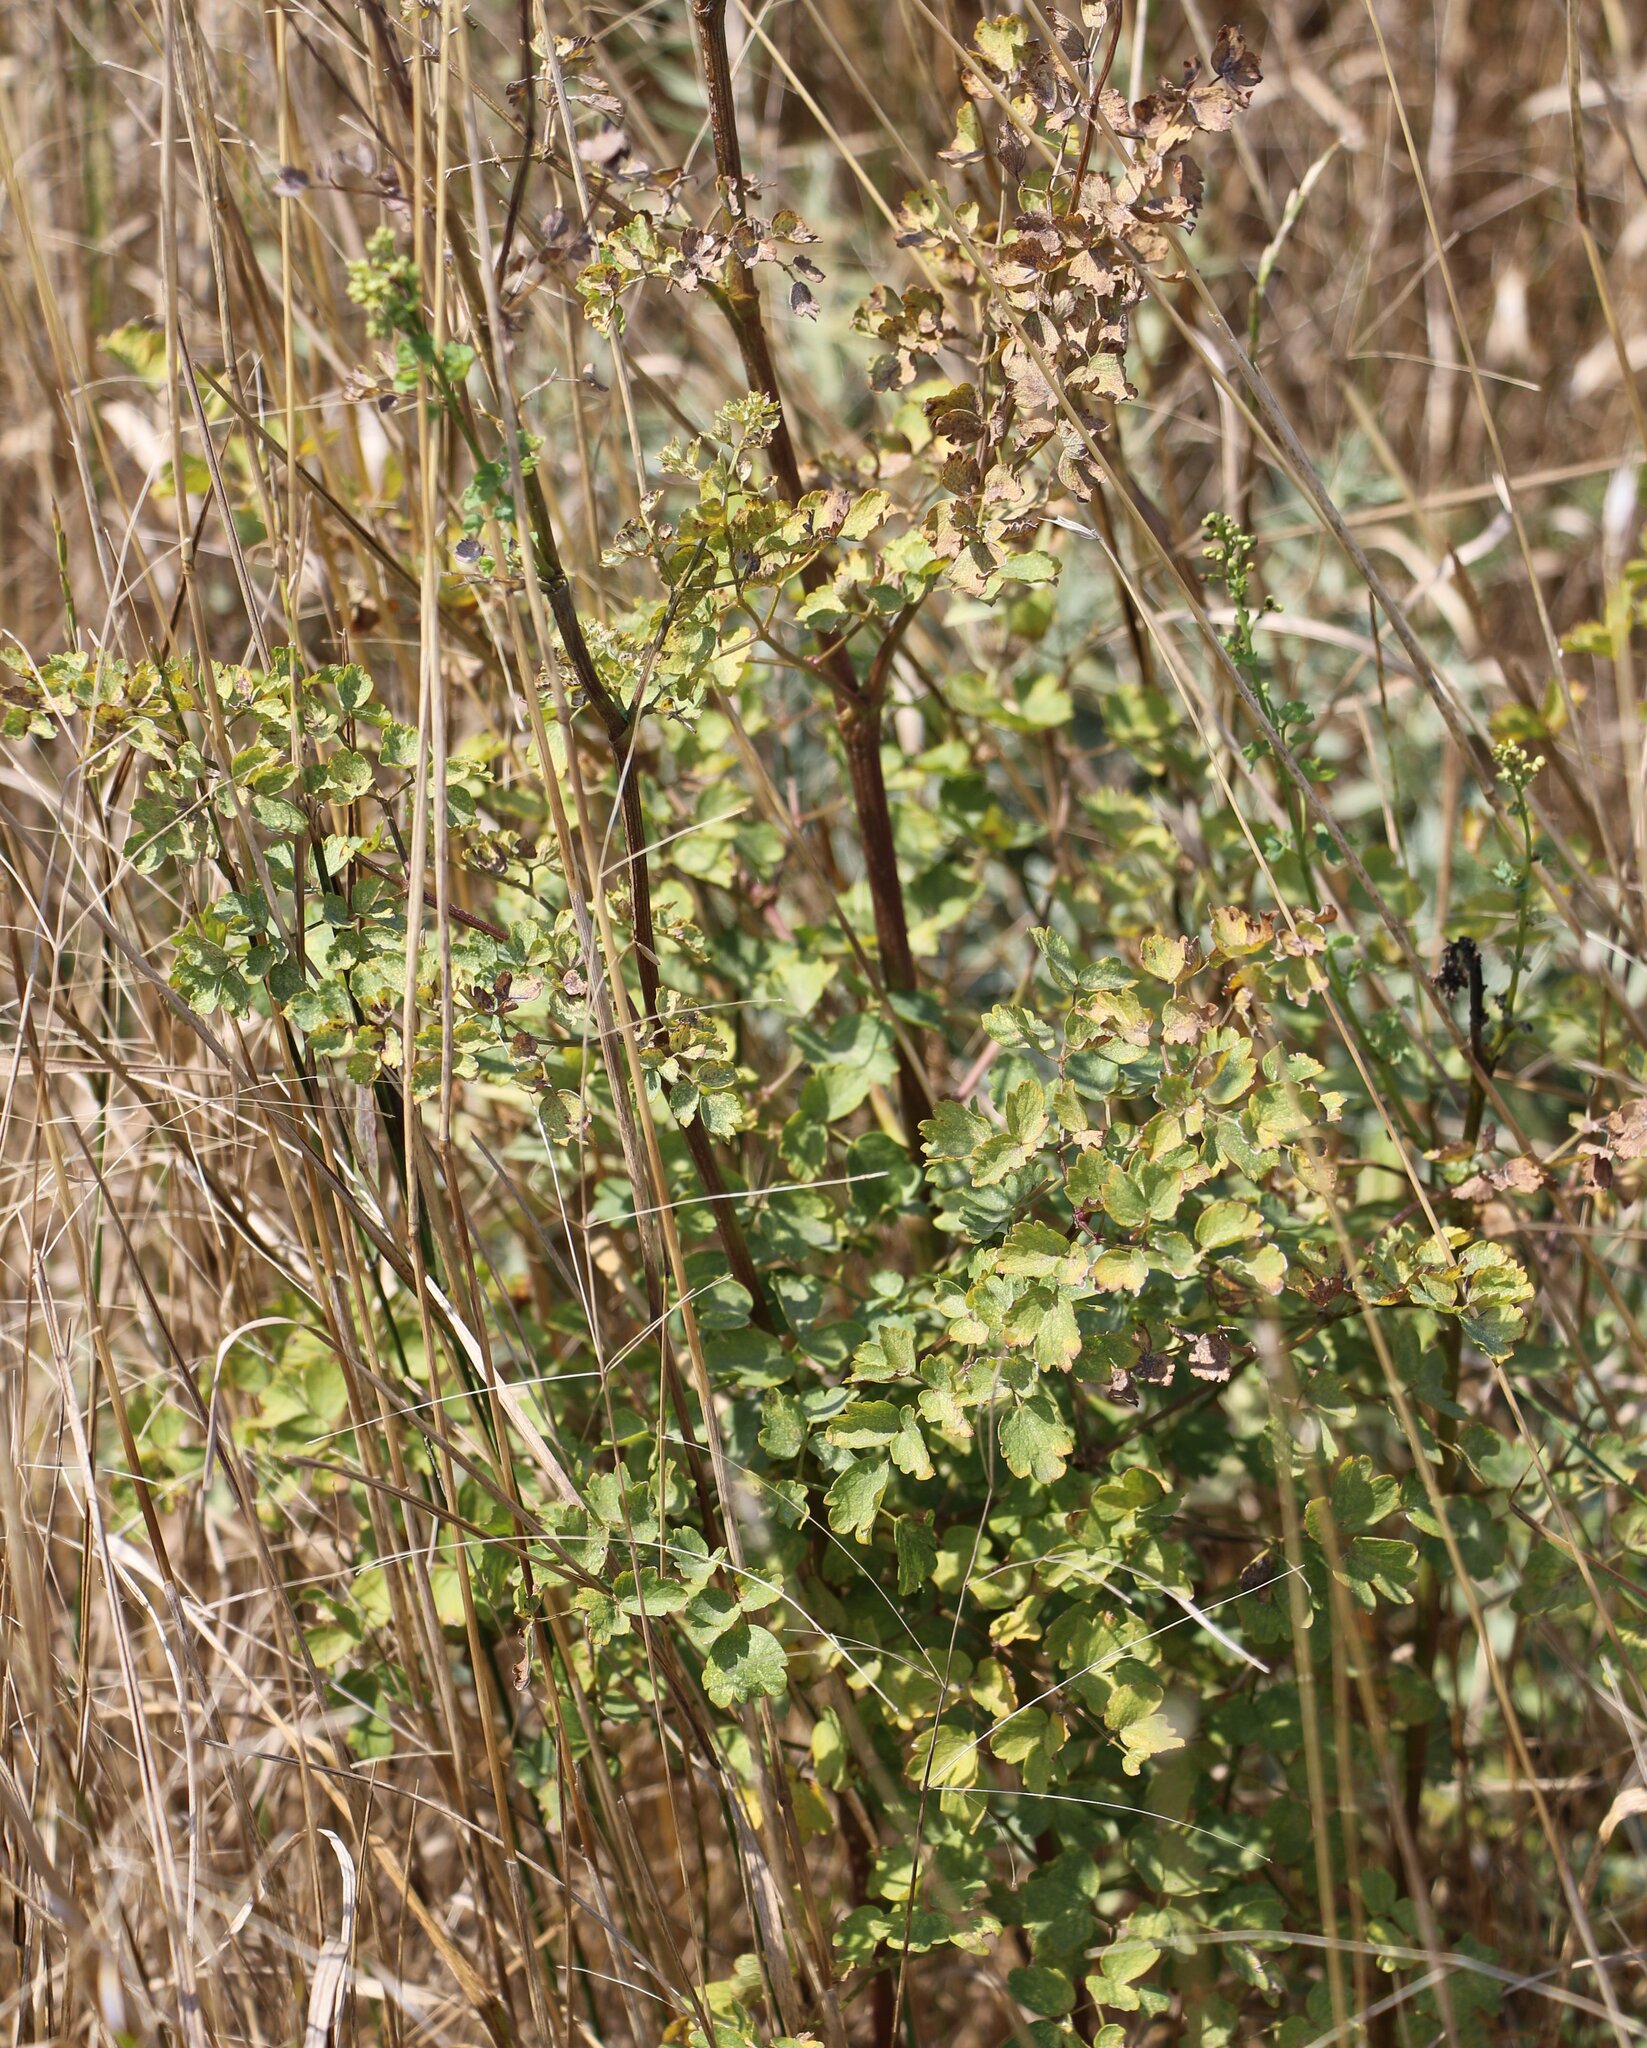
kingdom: Plantae
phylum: Tracheophyta
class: Magnoliopsida
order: Ranunculales
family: Ranunculaceae
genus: Thalictrum
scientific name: Thalictrum minus
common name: Lesser meadow-rue
